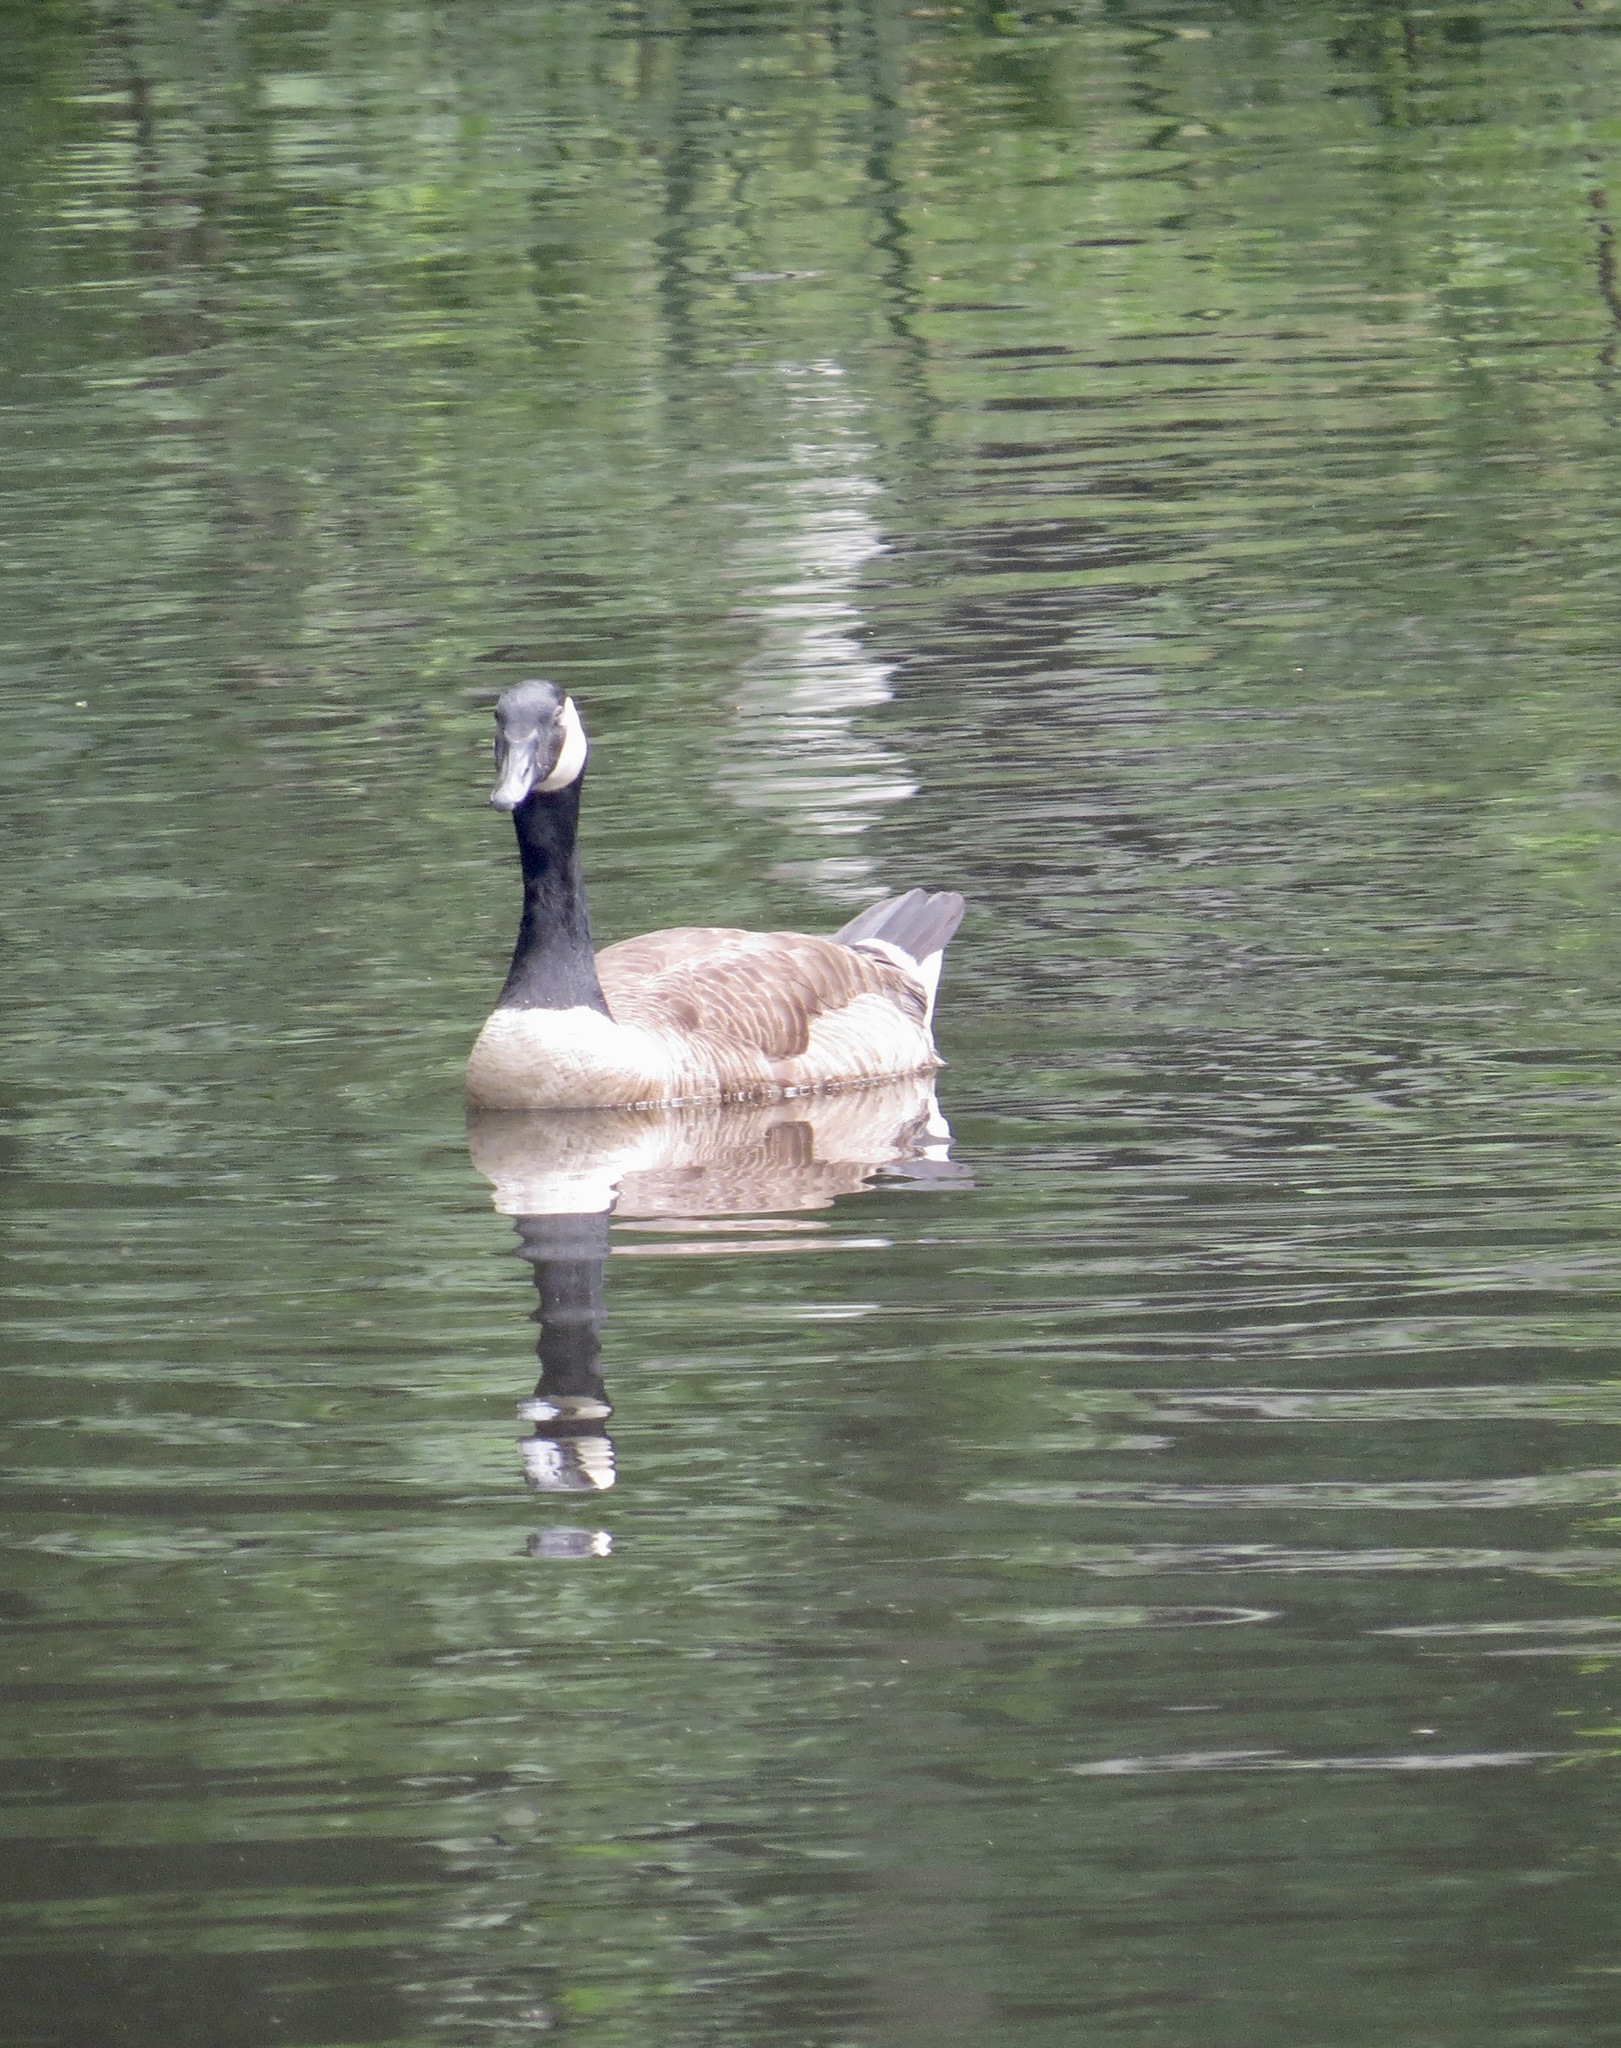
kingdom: Animalia
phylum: Chordata
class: Aves
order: Anseriformes
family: Anatidae
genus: Branta
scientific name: Branta canadensis
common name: Canada goose
